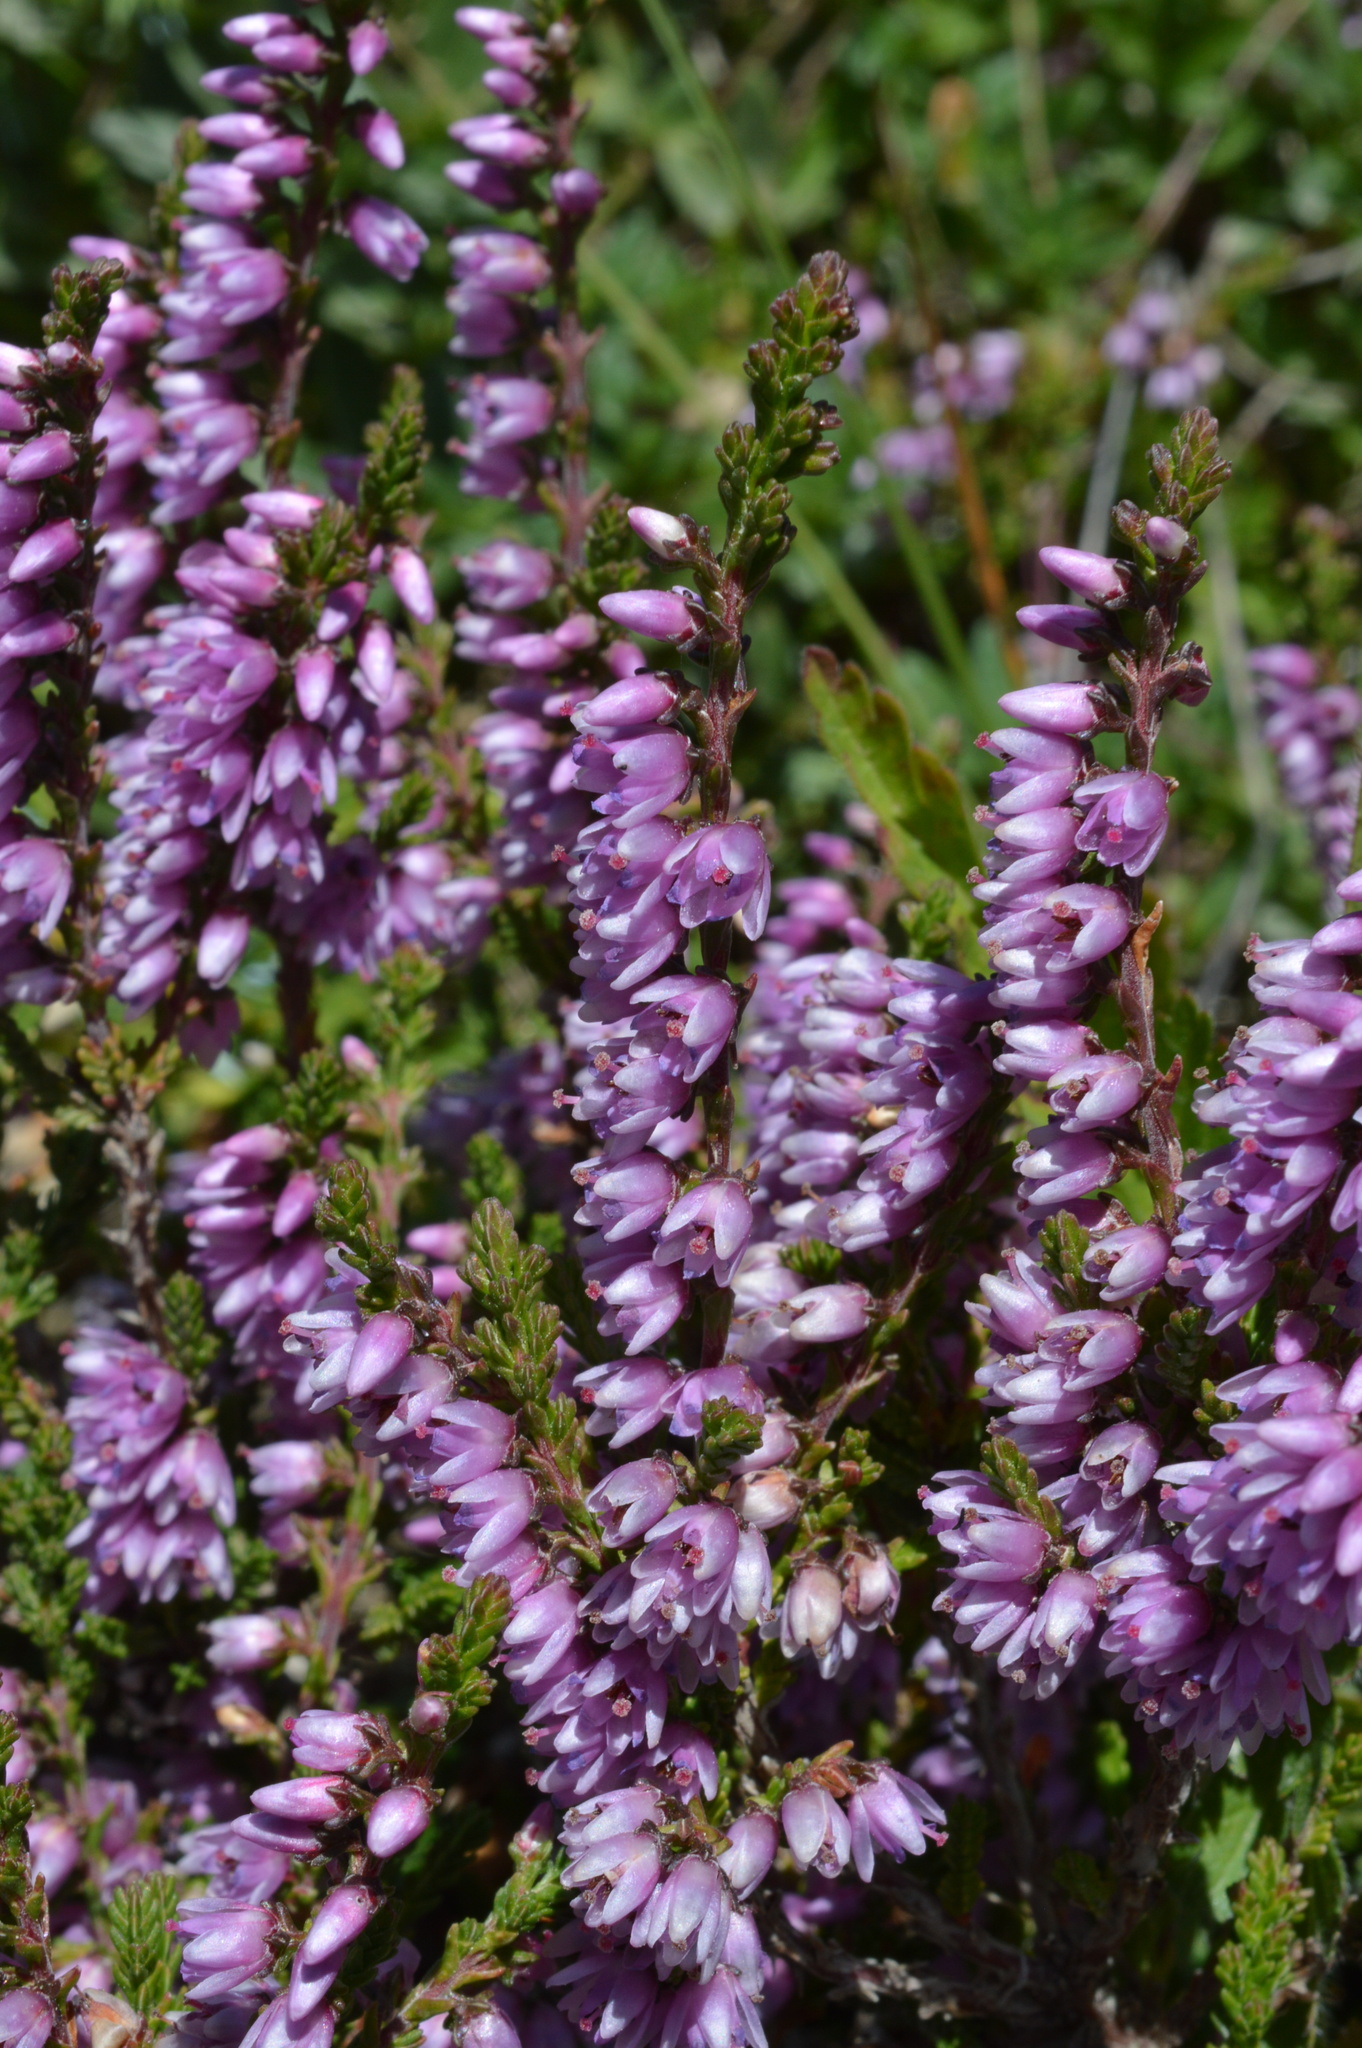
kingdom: Plantae
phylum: Tracheophyta
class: Magnoliopsida
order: Ericales
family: Ericaceae
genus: Calluna
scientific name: Calluna vulgaris
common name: Heather
